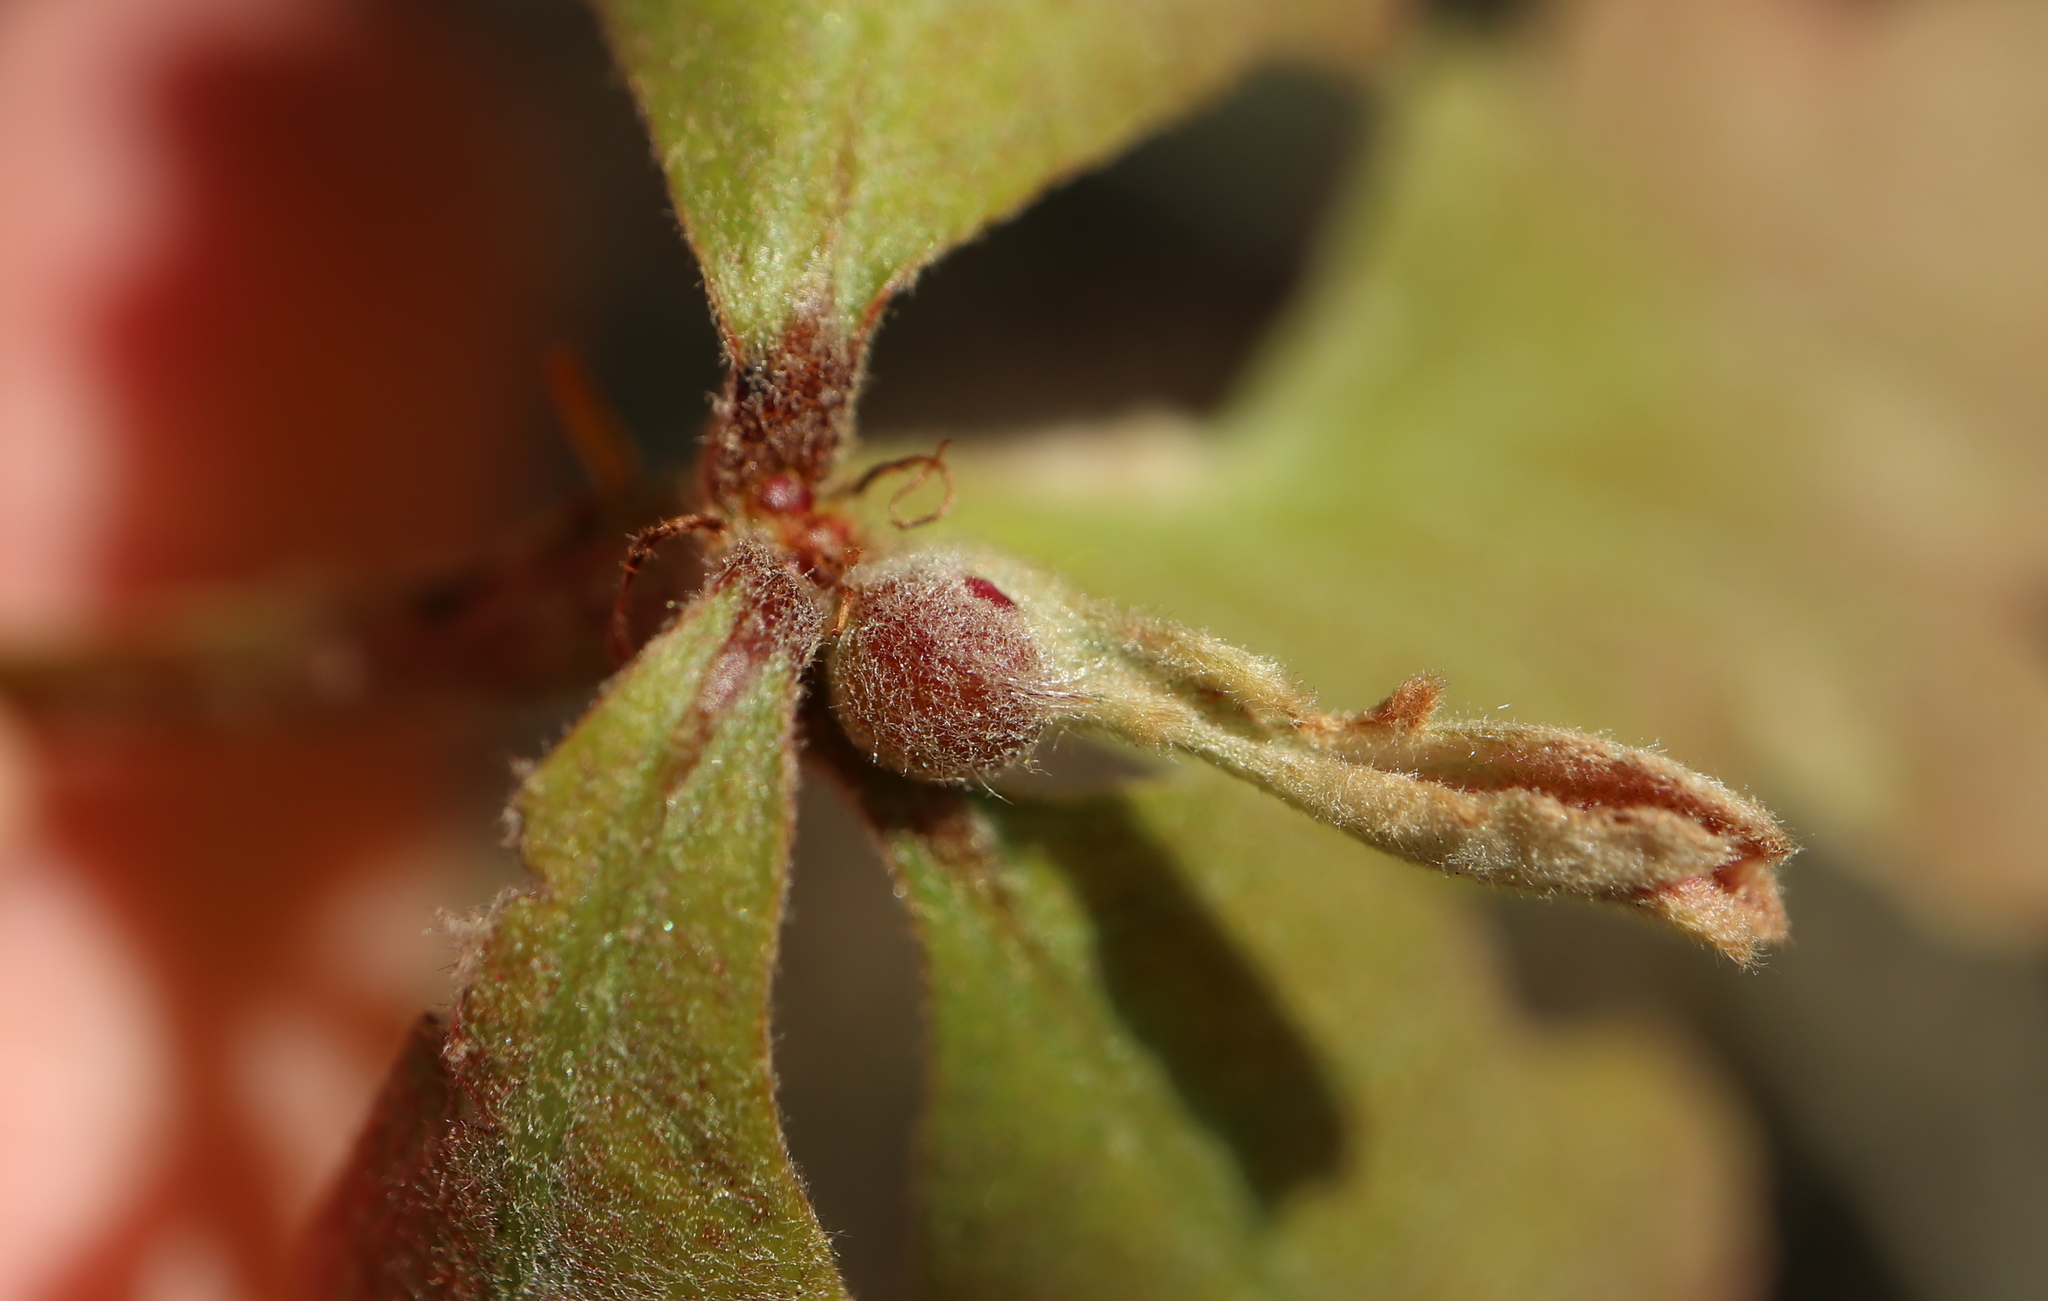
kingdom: Animalia
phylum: Arthropoda
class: Insecta
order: Hymenoptera
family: Cynipidae
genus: Andricus
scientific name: Andricus
